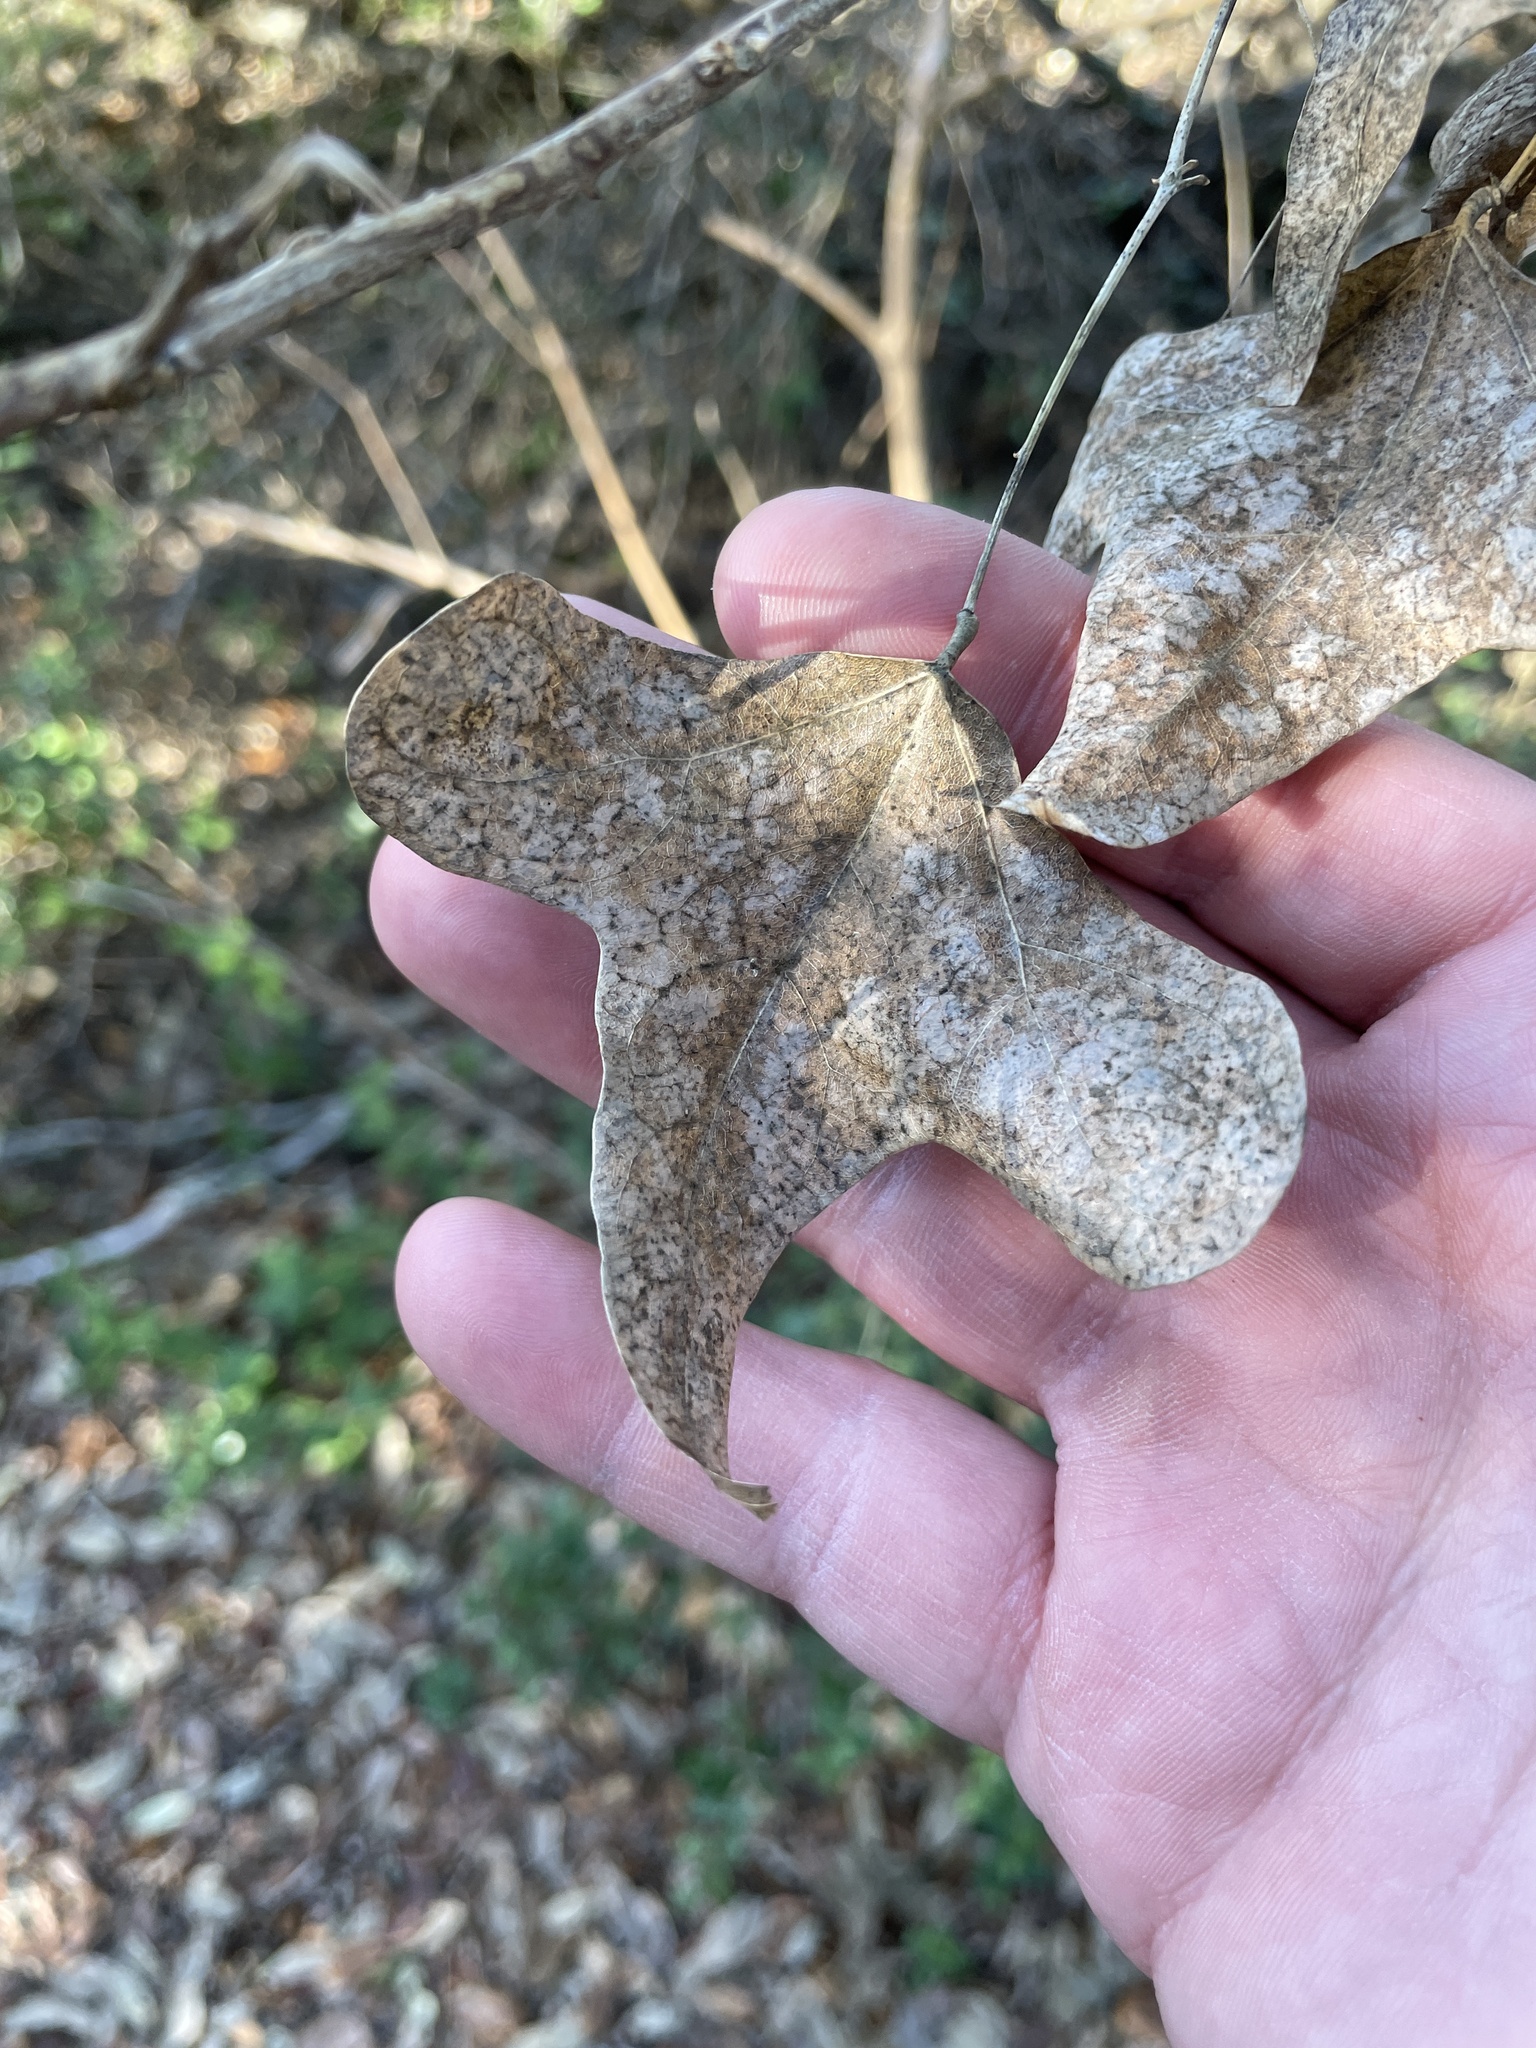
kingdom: Plantae
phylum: Tracheophyta
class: Magnoliopsida
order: Fabales
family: Fabaceae
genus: Erythrina
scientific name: Erythrina herbacea
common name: Coral-bean
